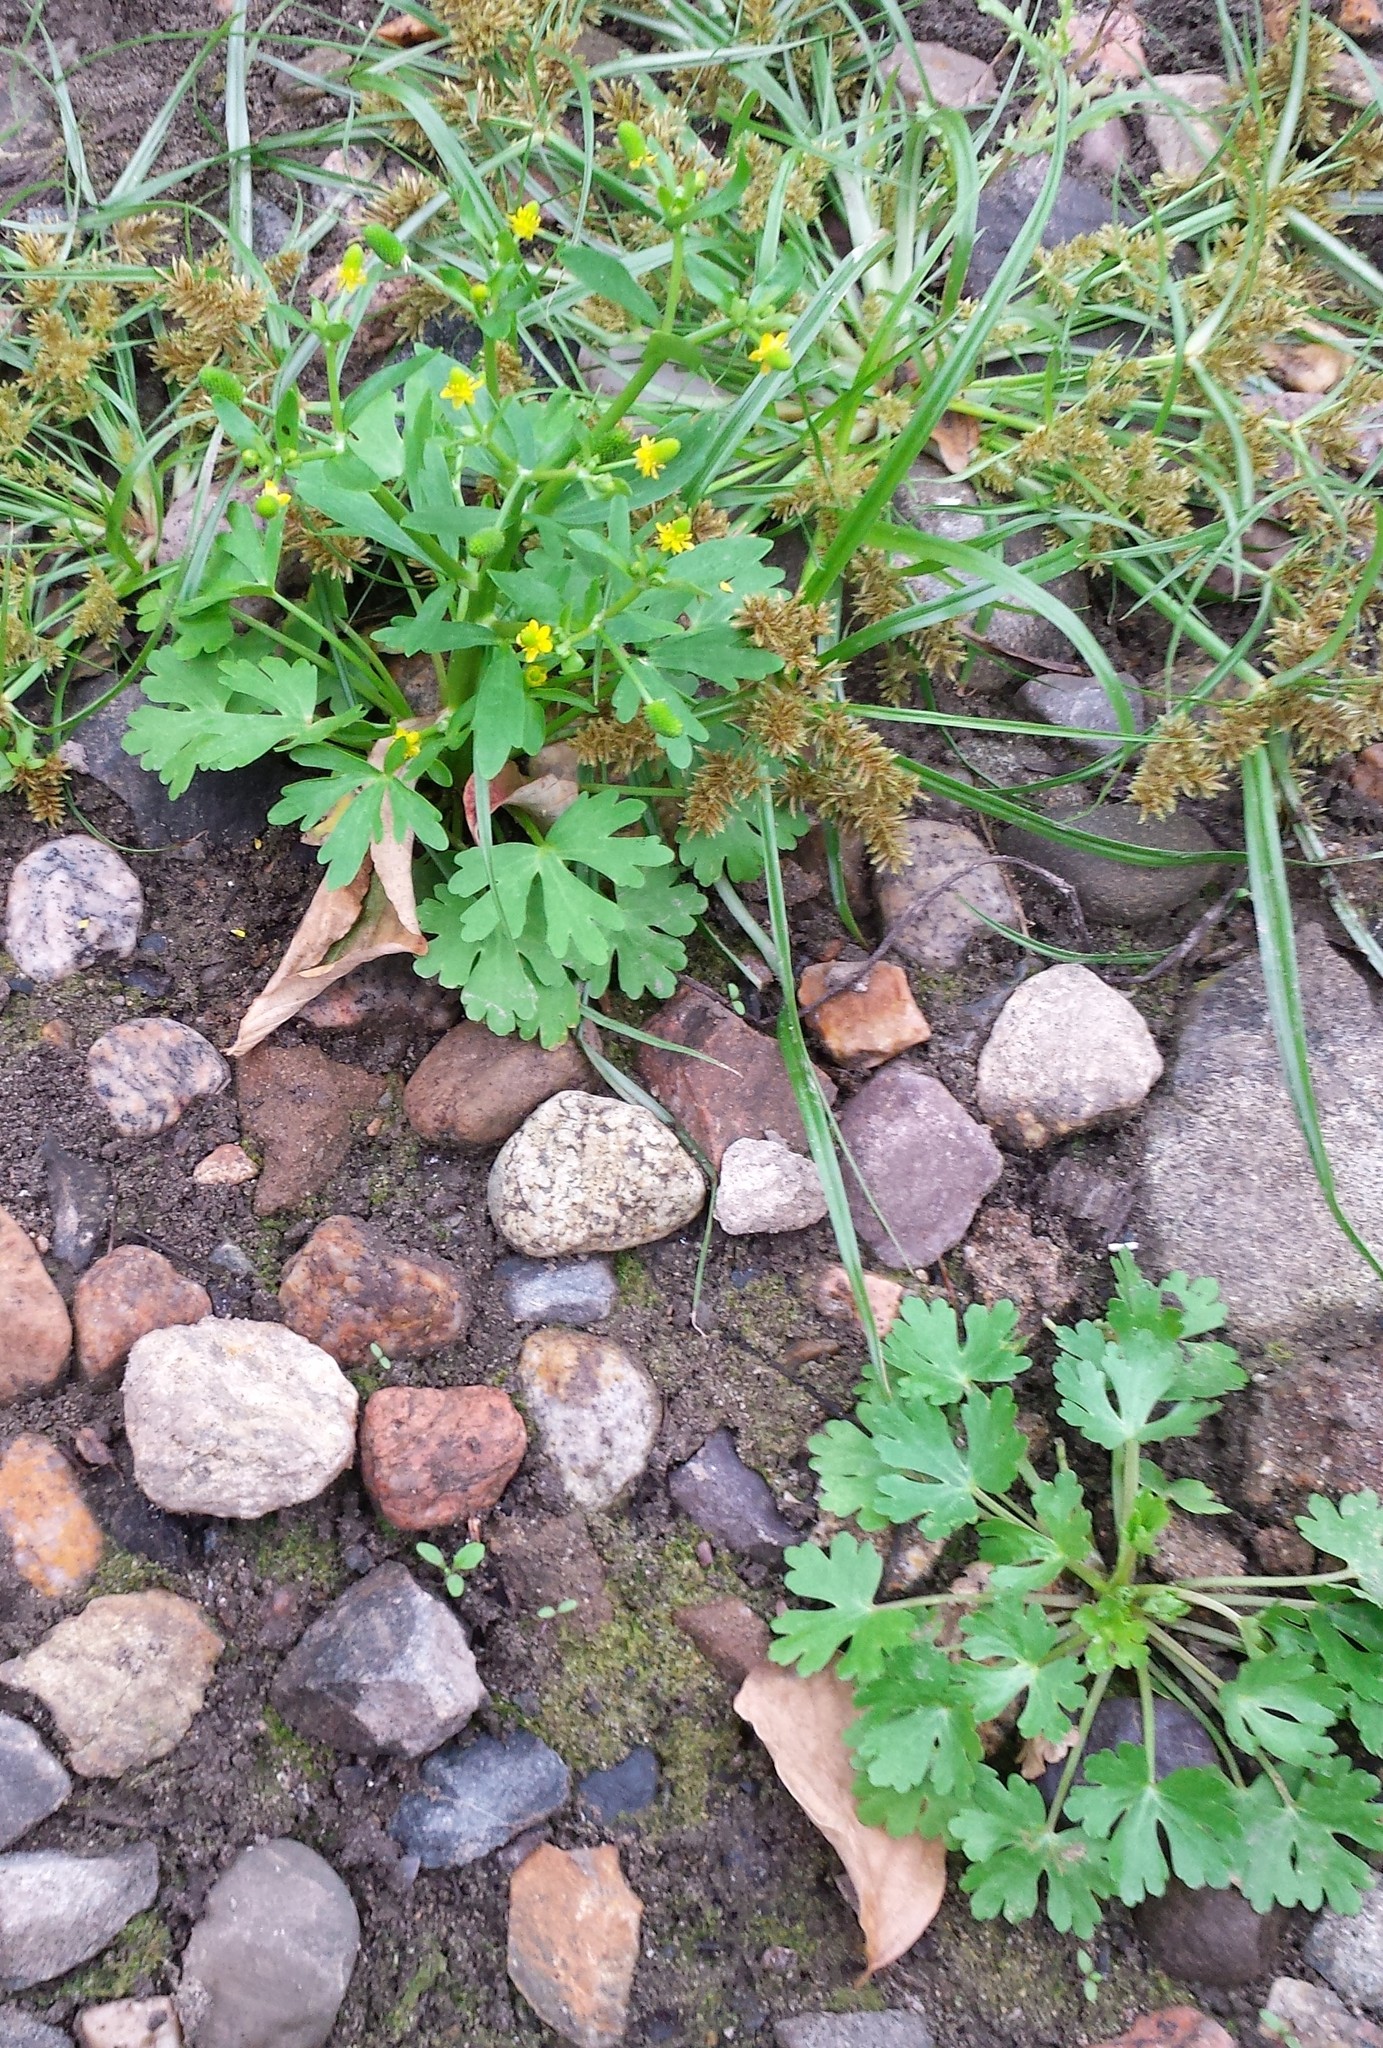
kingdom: Plantae
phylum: Tracheophyta
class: Magnoliopsida
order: Ranunculales
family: Ranunculaceae
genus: Ranunculus
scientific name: Ranunculus sceleratus
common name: Celery-leaved buttercup
